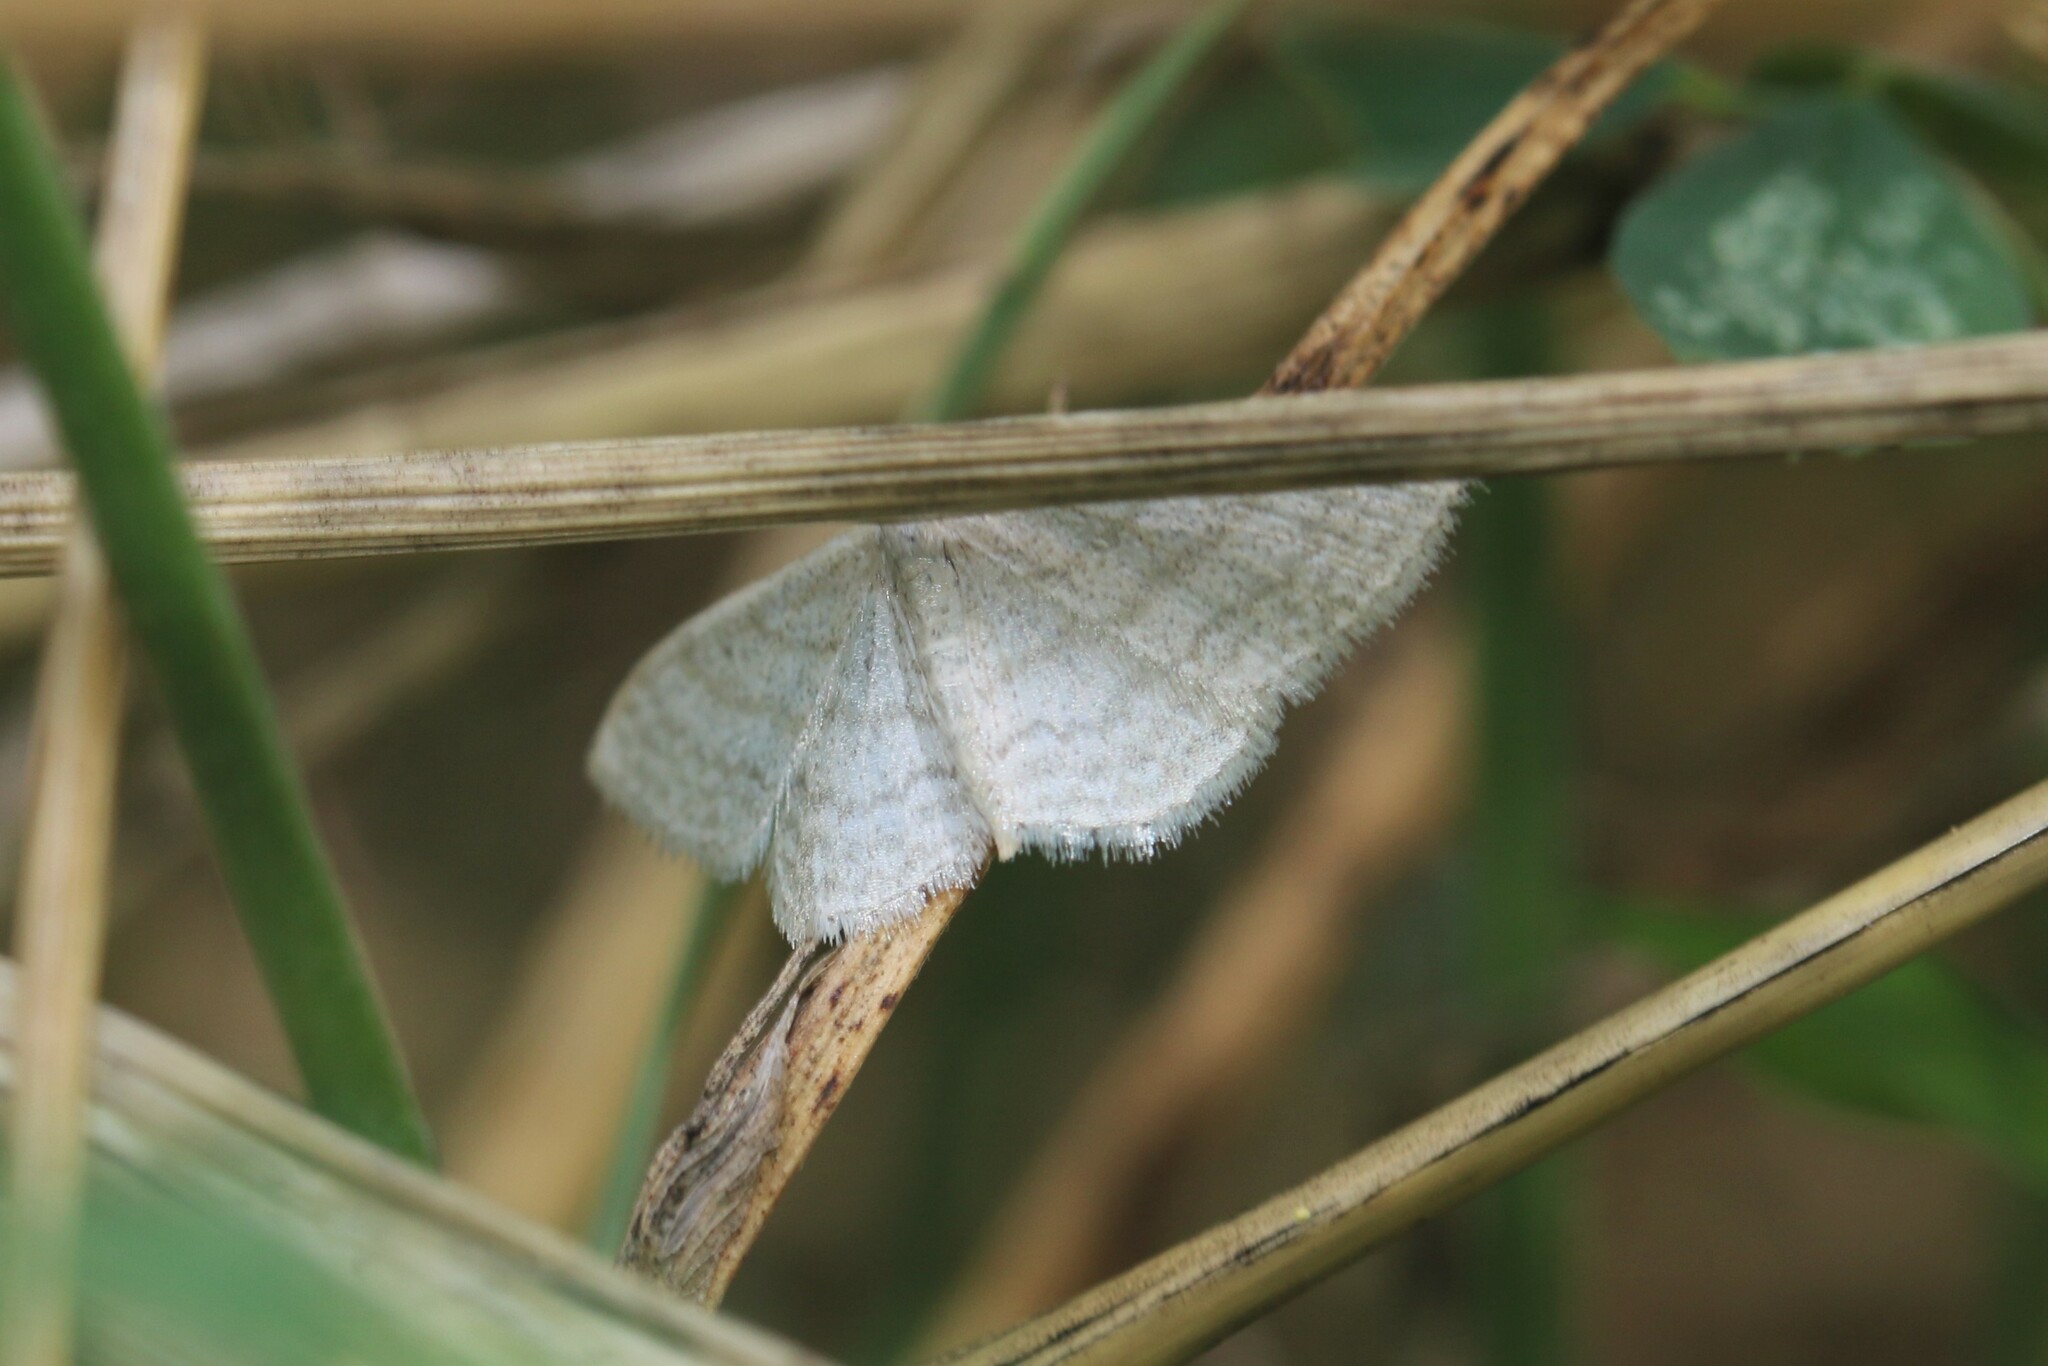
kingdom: Animalia
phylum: Arthropoda
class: Insecta
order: Lepidoptera
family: Geometridae
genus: Idaea
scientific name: Idaea subsericeata
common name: Satin wave
